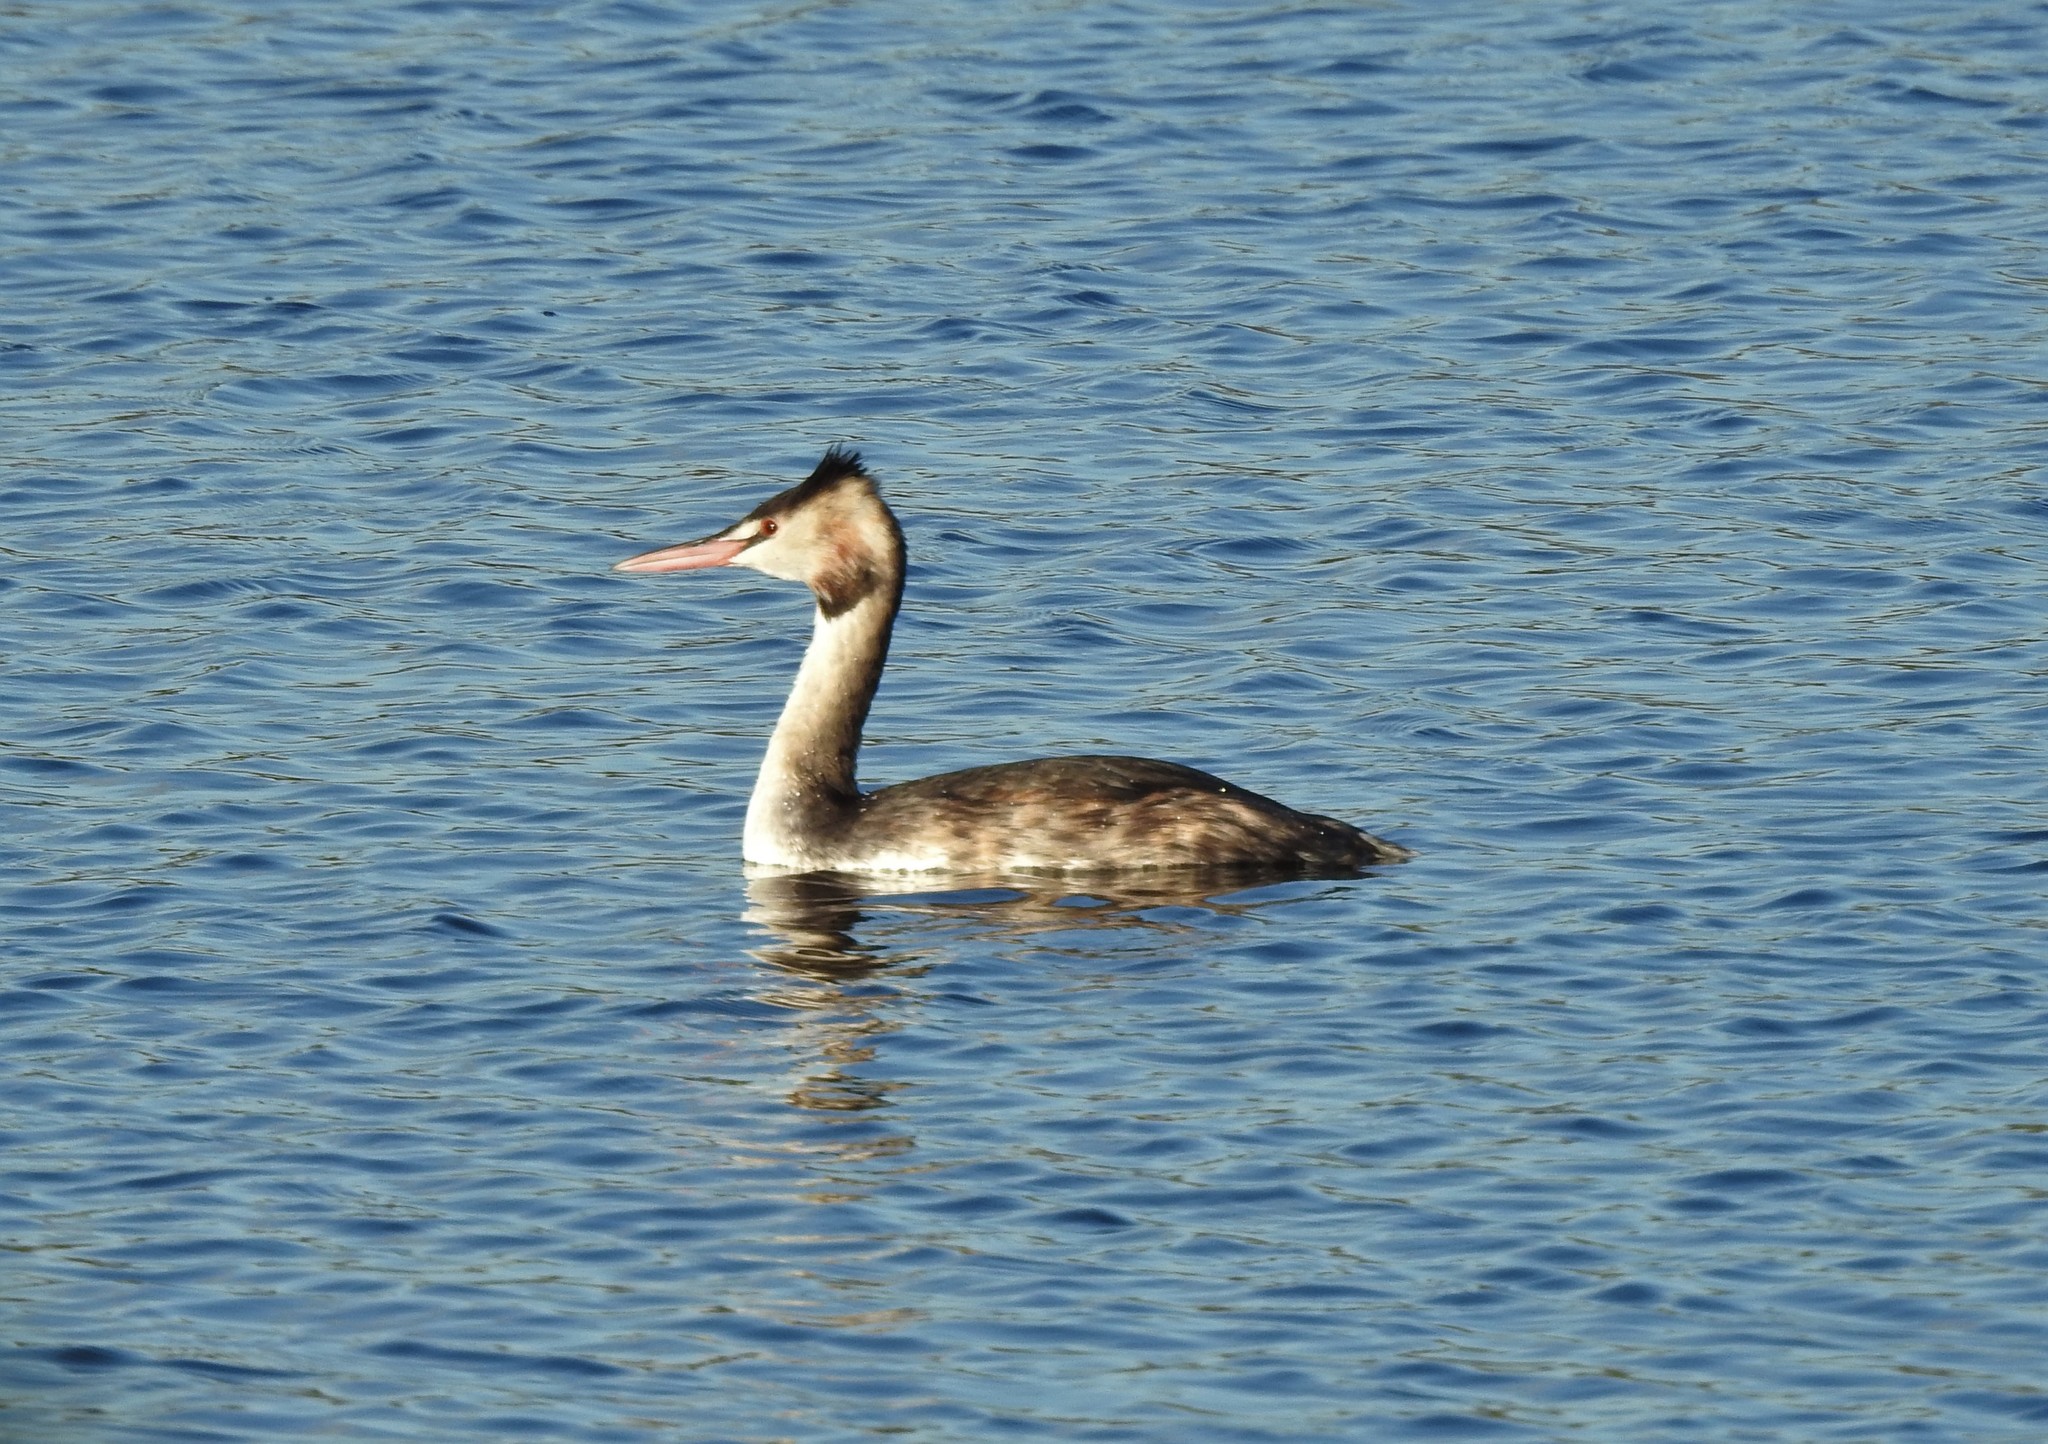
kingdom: Animalia
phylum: Chordata
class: Aves
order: Podicipediformes
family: Podicipedidae
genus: Podiceps
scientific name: Podiceps cristatus
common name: Great crested grebe
